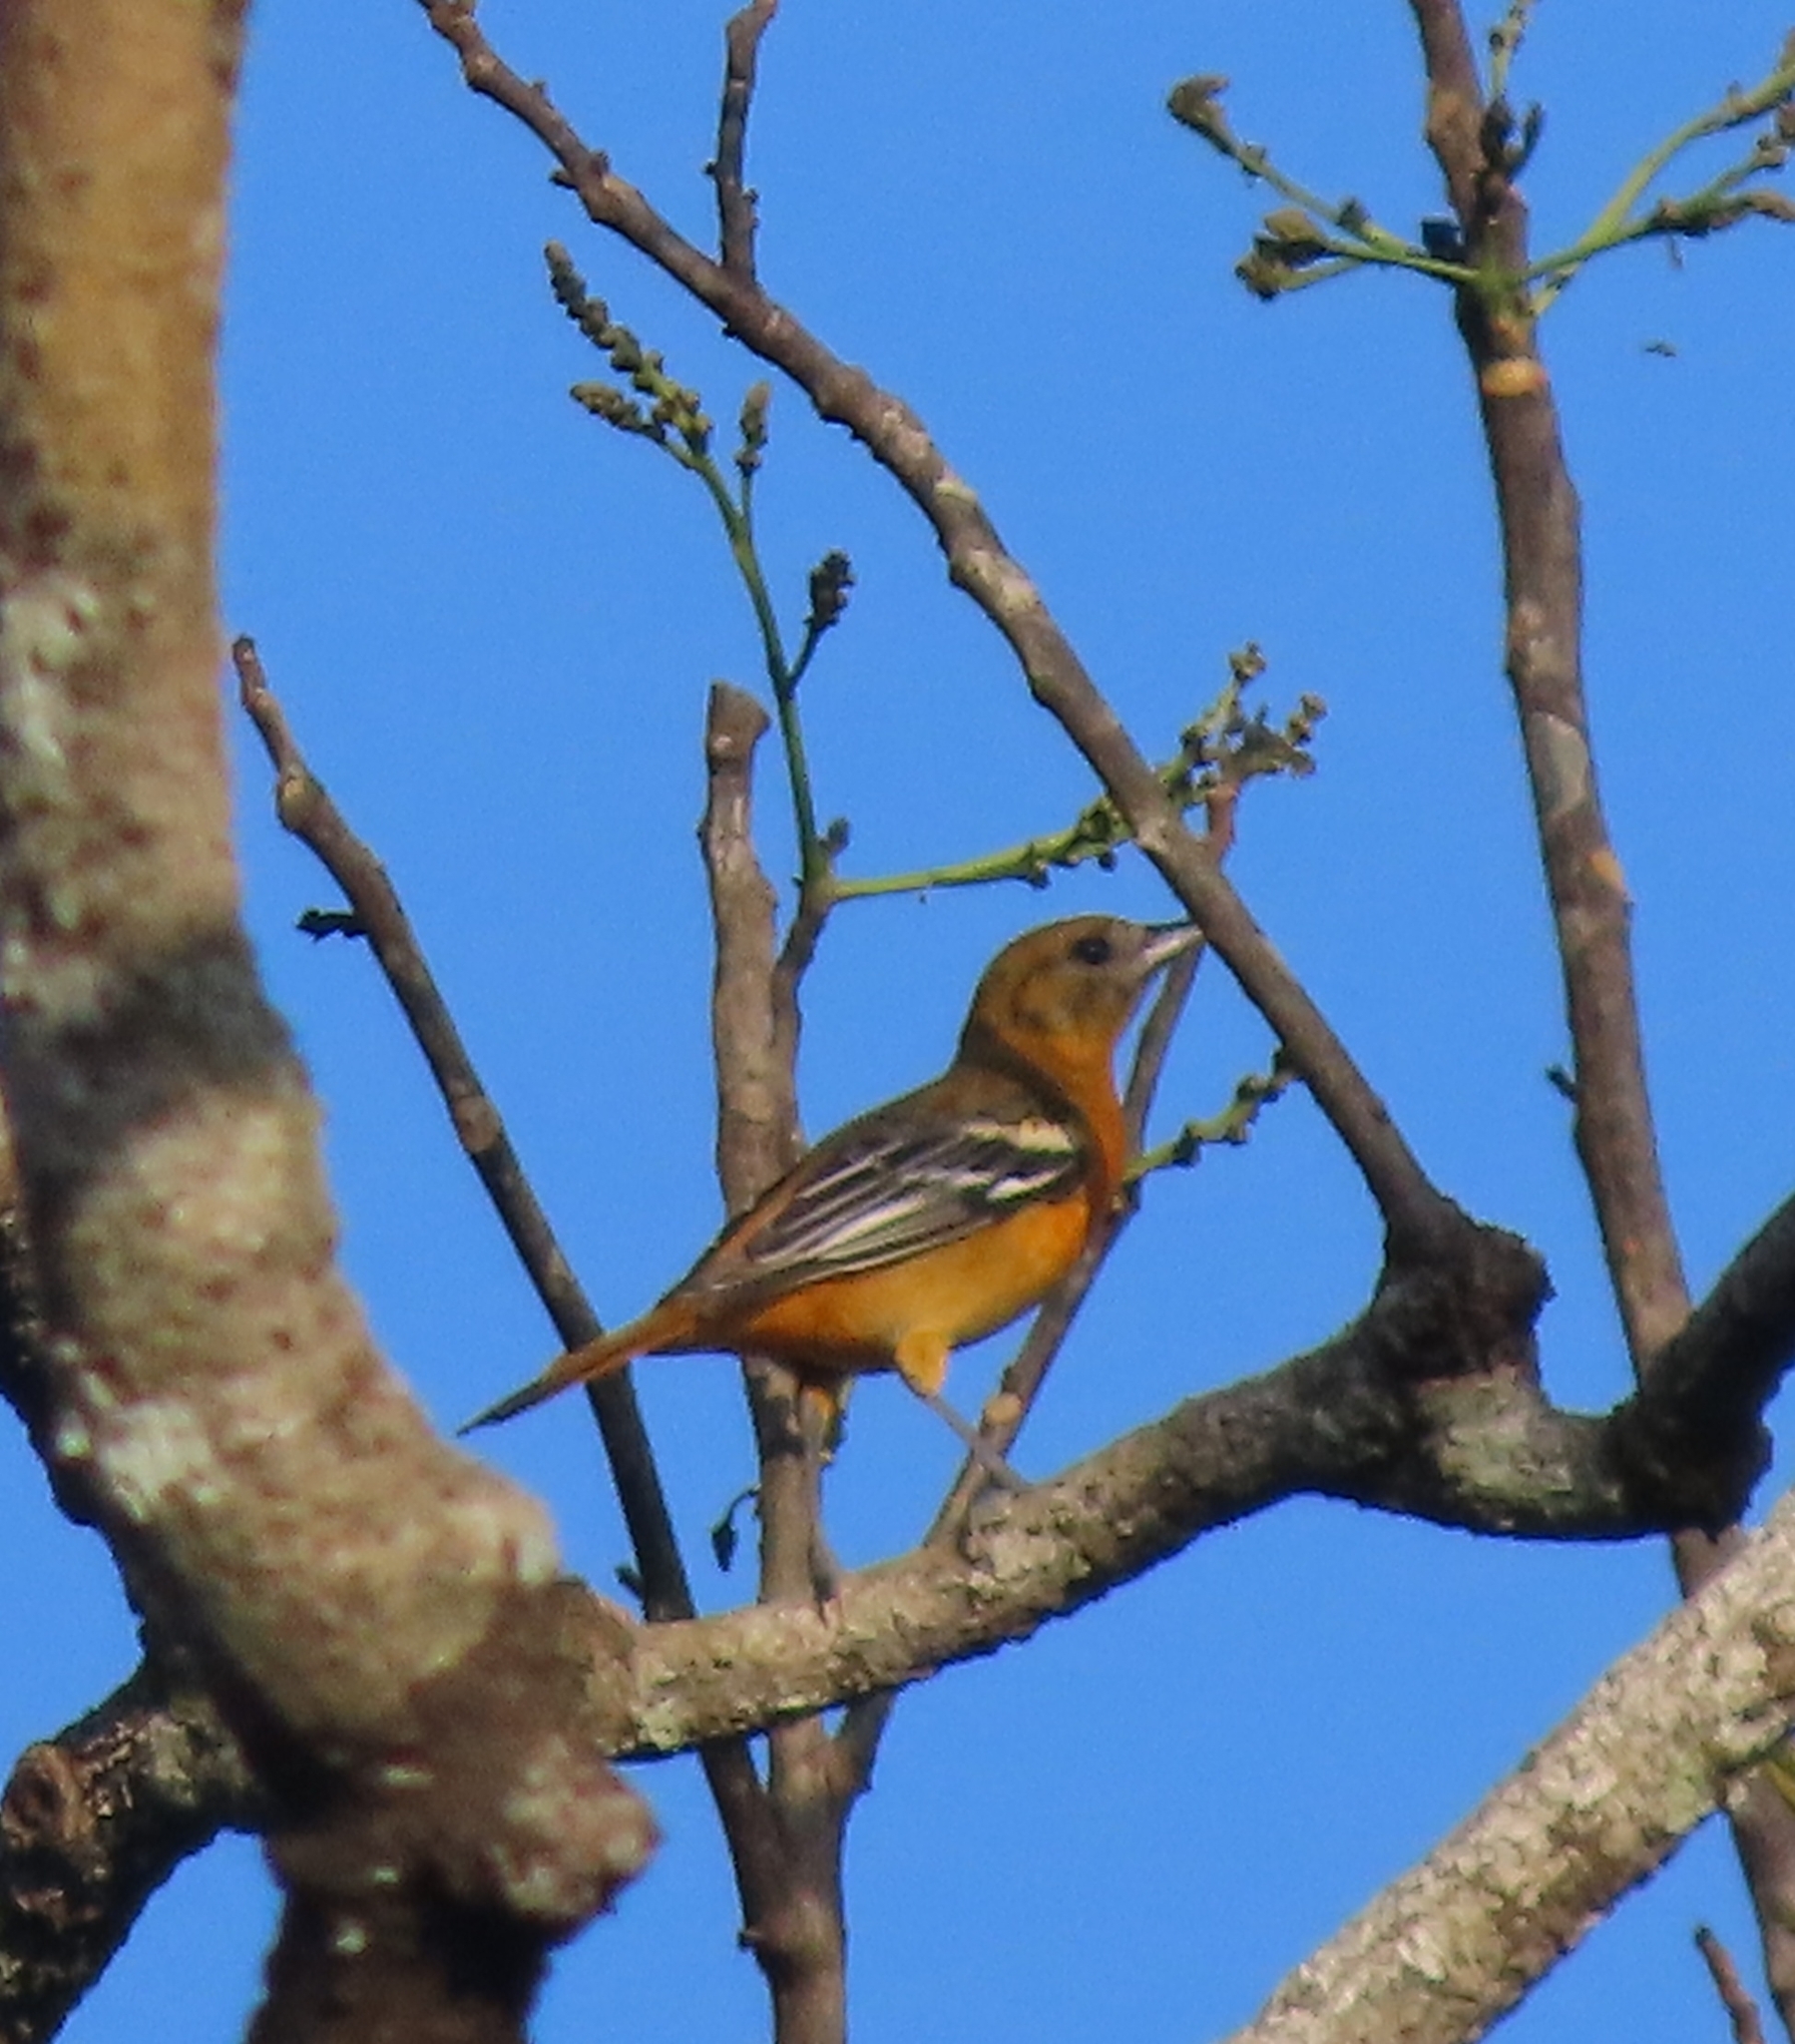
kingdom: Animalia
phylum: Chordata
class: Aves
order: Passeriformes
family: Icteridae
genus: Icterus
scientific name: Icterus galbula
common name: Baltimore oriole
